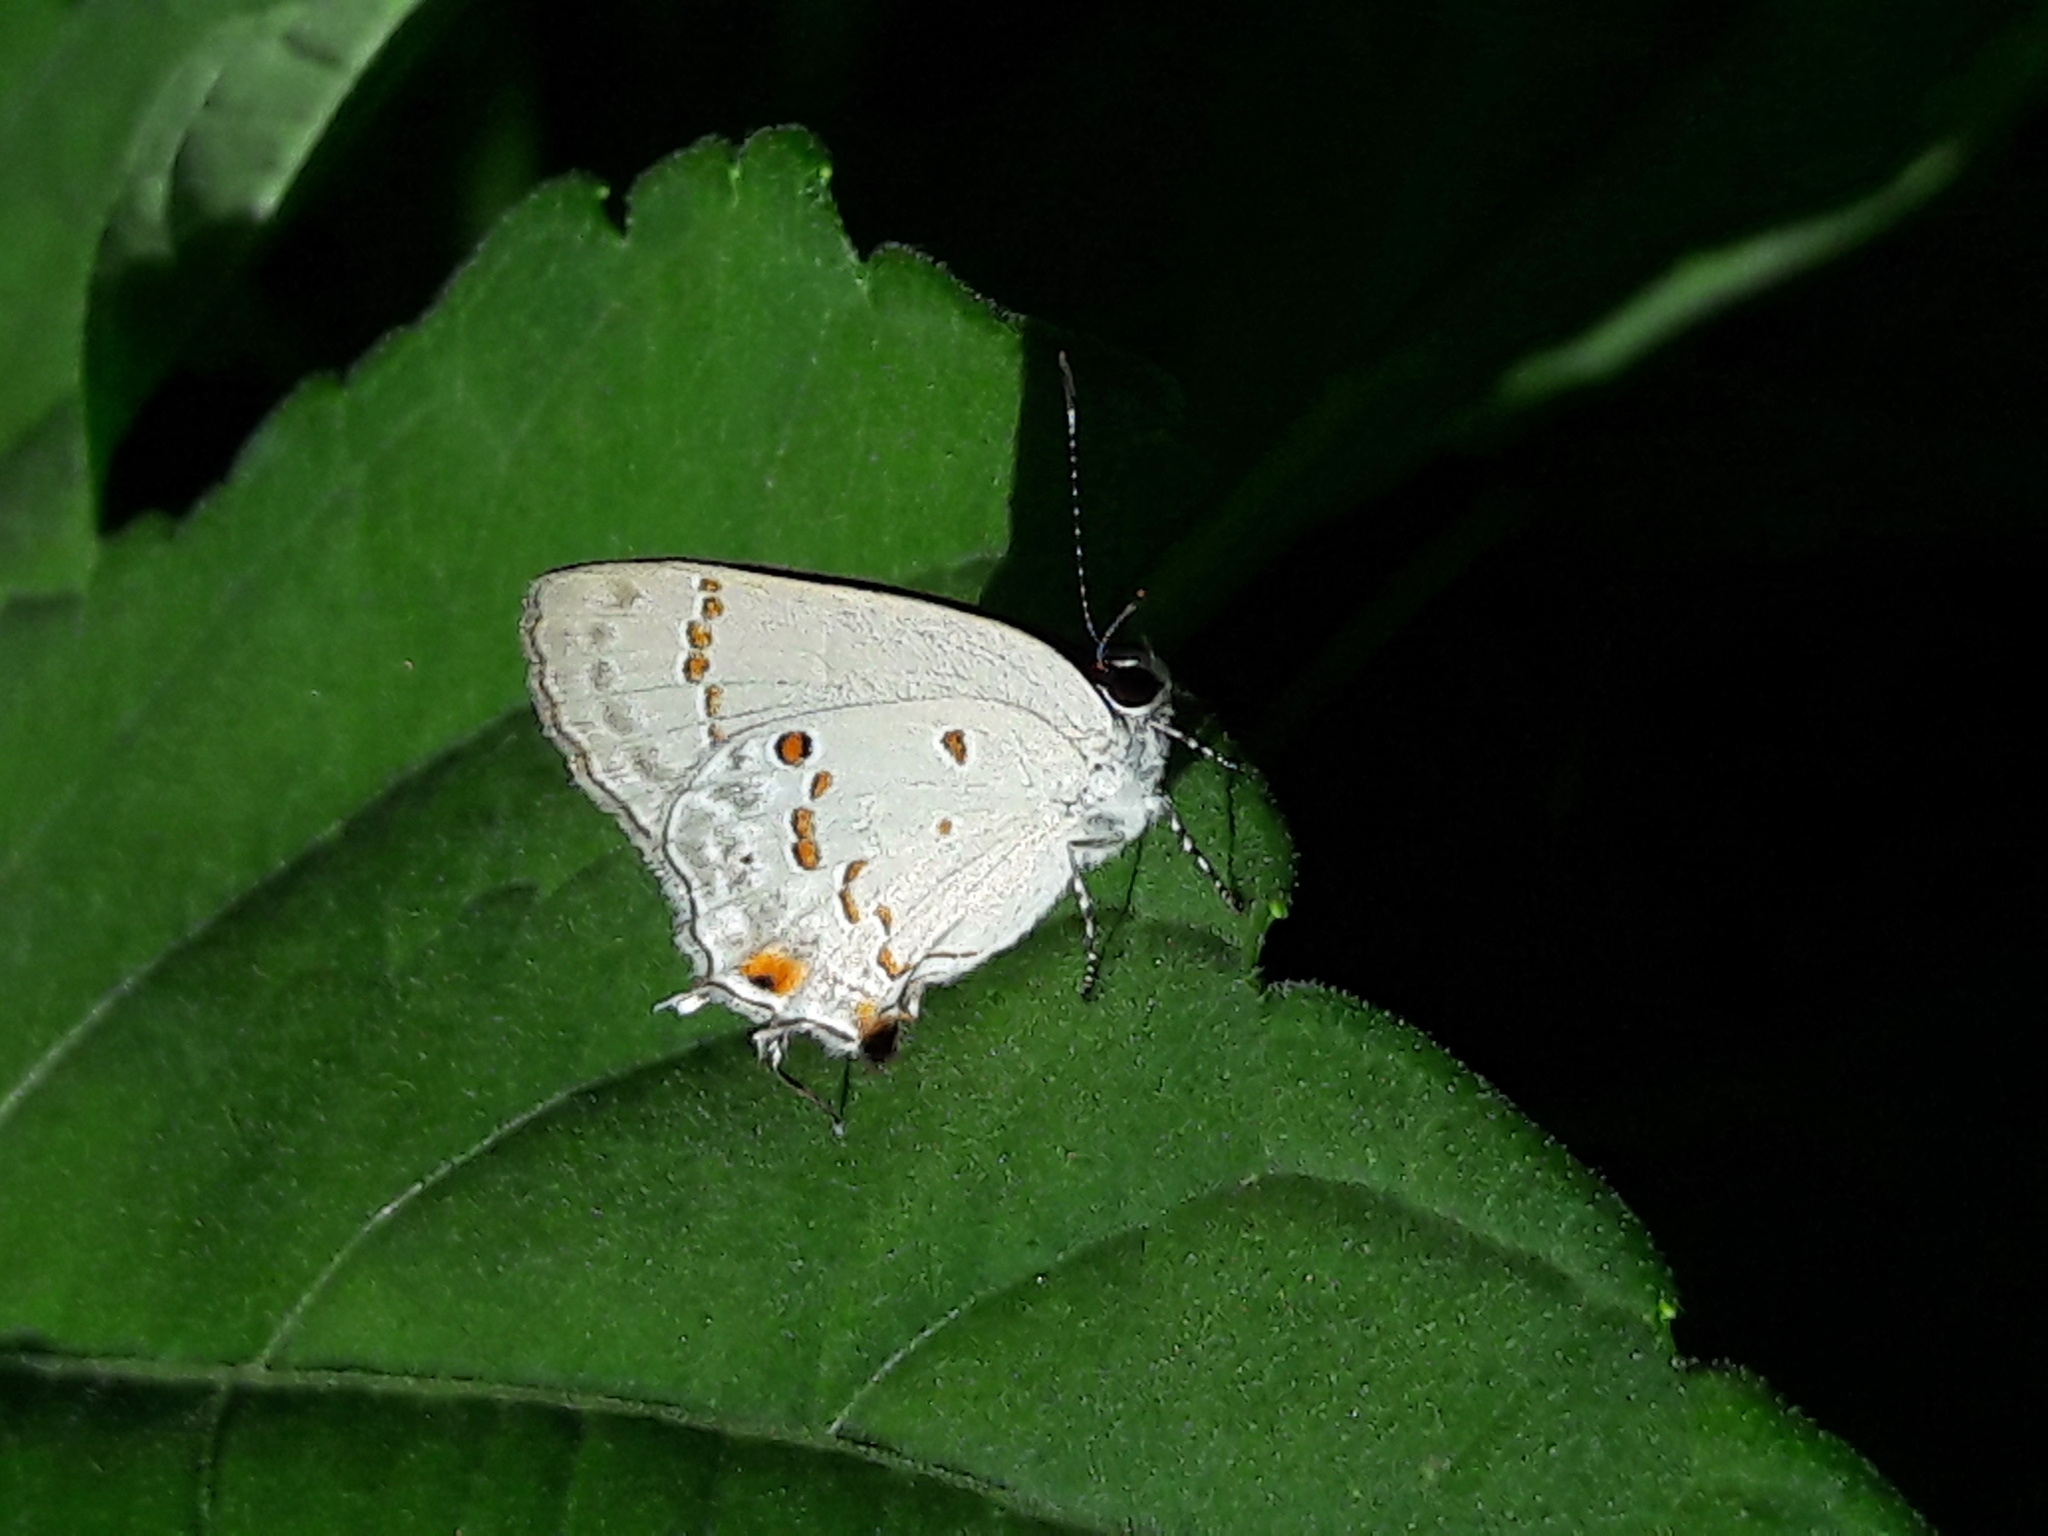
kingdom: Animalia
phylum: Arthropoda
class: Insecta
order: Lepidoptera
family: Lycaenidae
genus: Strymon
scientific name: Strymon
